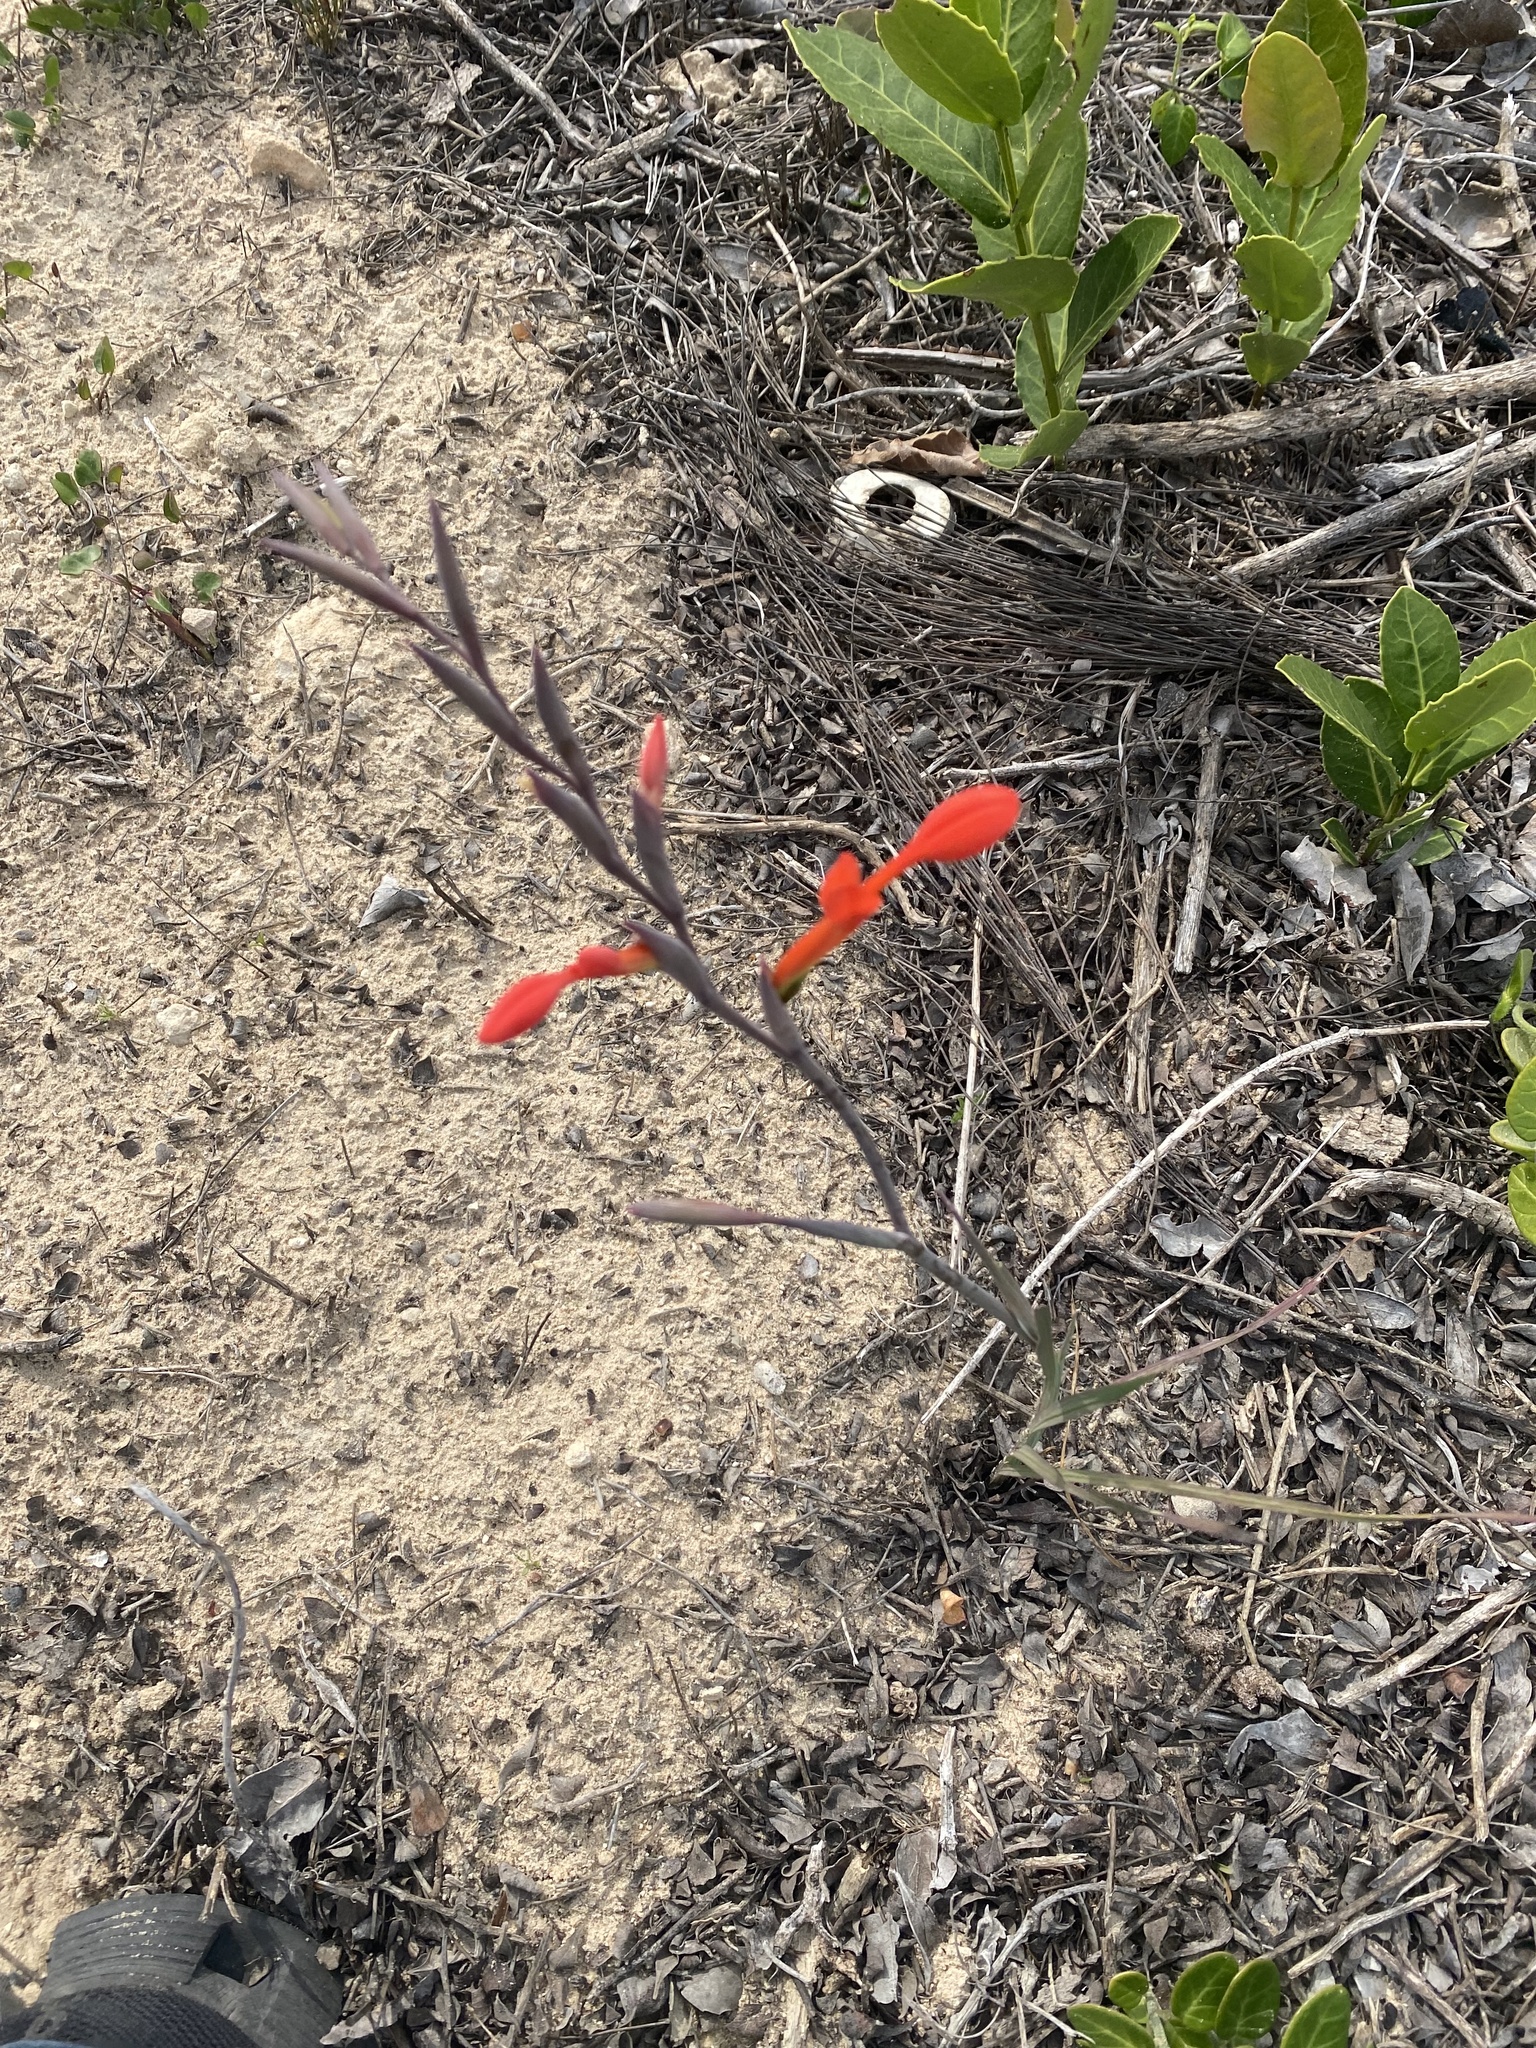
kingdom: Plantae
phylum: Tracheophyta
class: Liliopsida
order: Asparagales
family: Iridaceae
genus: Gladiolus
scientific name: Gladiolus cunonius
